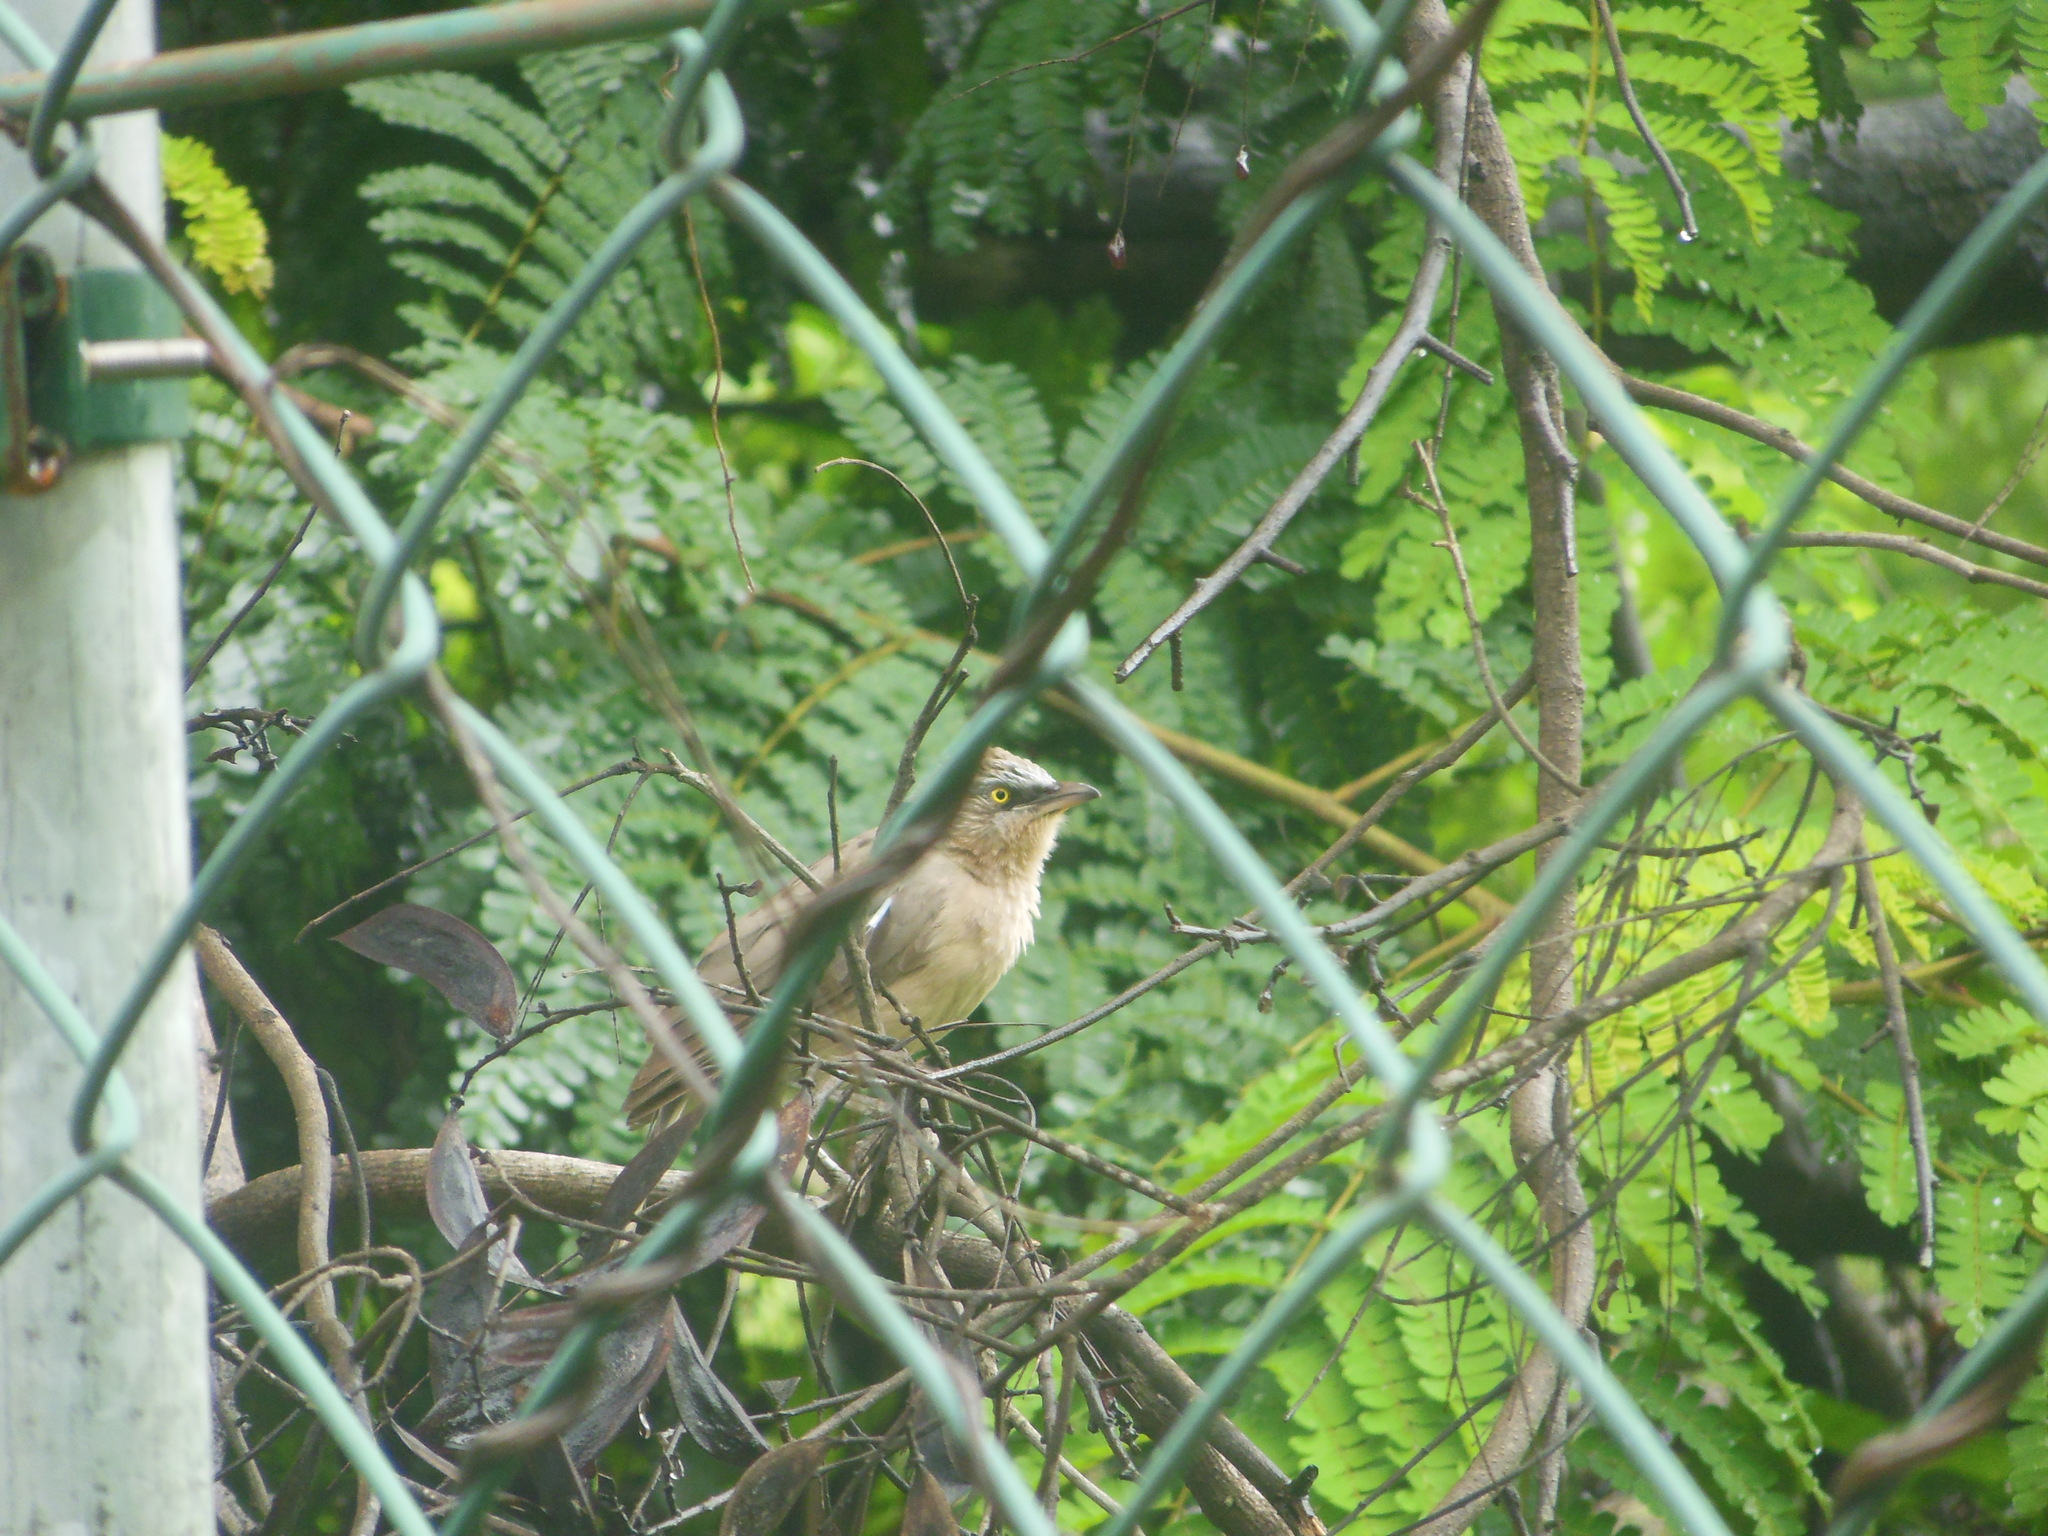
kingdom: Animalia
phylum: Chordata
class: Aves
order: Passeriformes
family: Leiothrichidae
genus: Turdoides
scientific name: Turdoides malcolmi
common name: Large grey babbler
